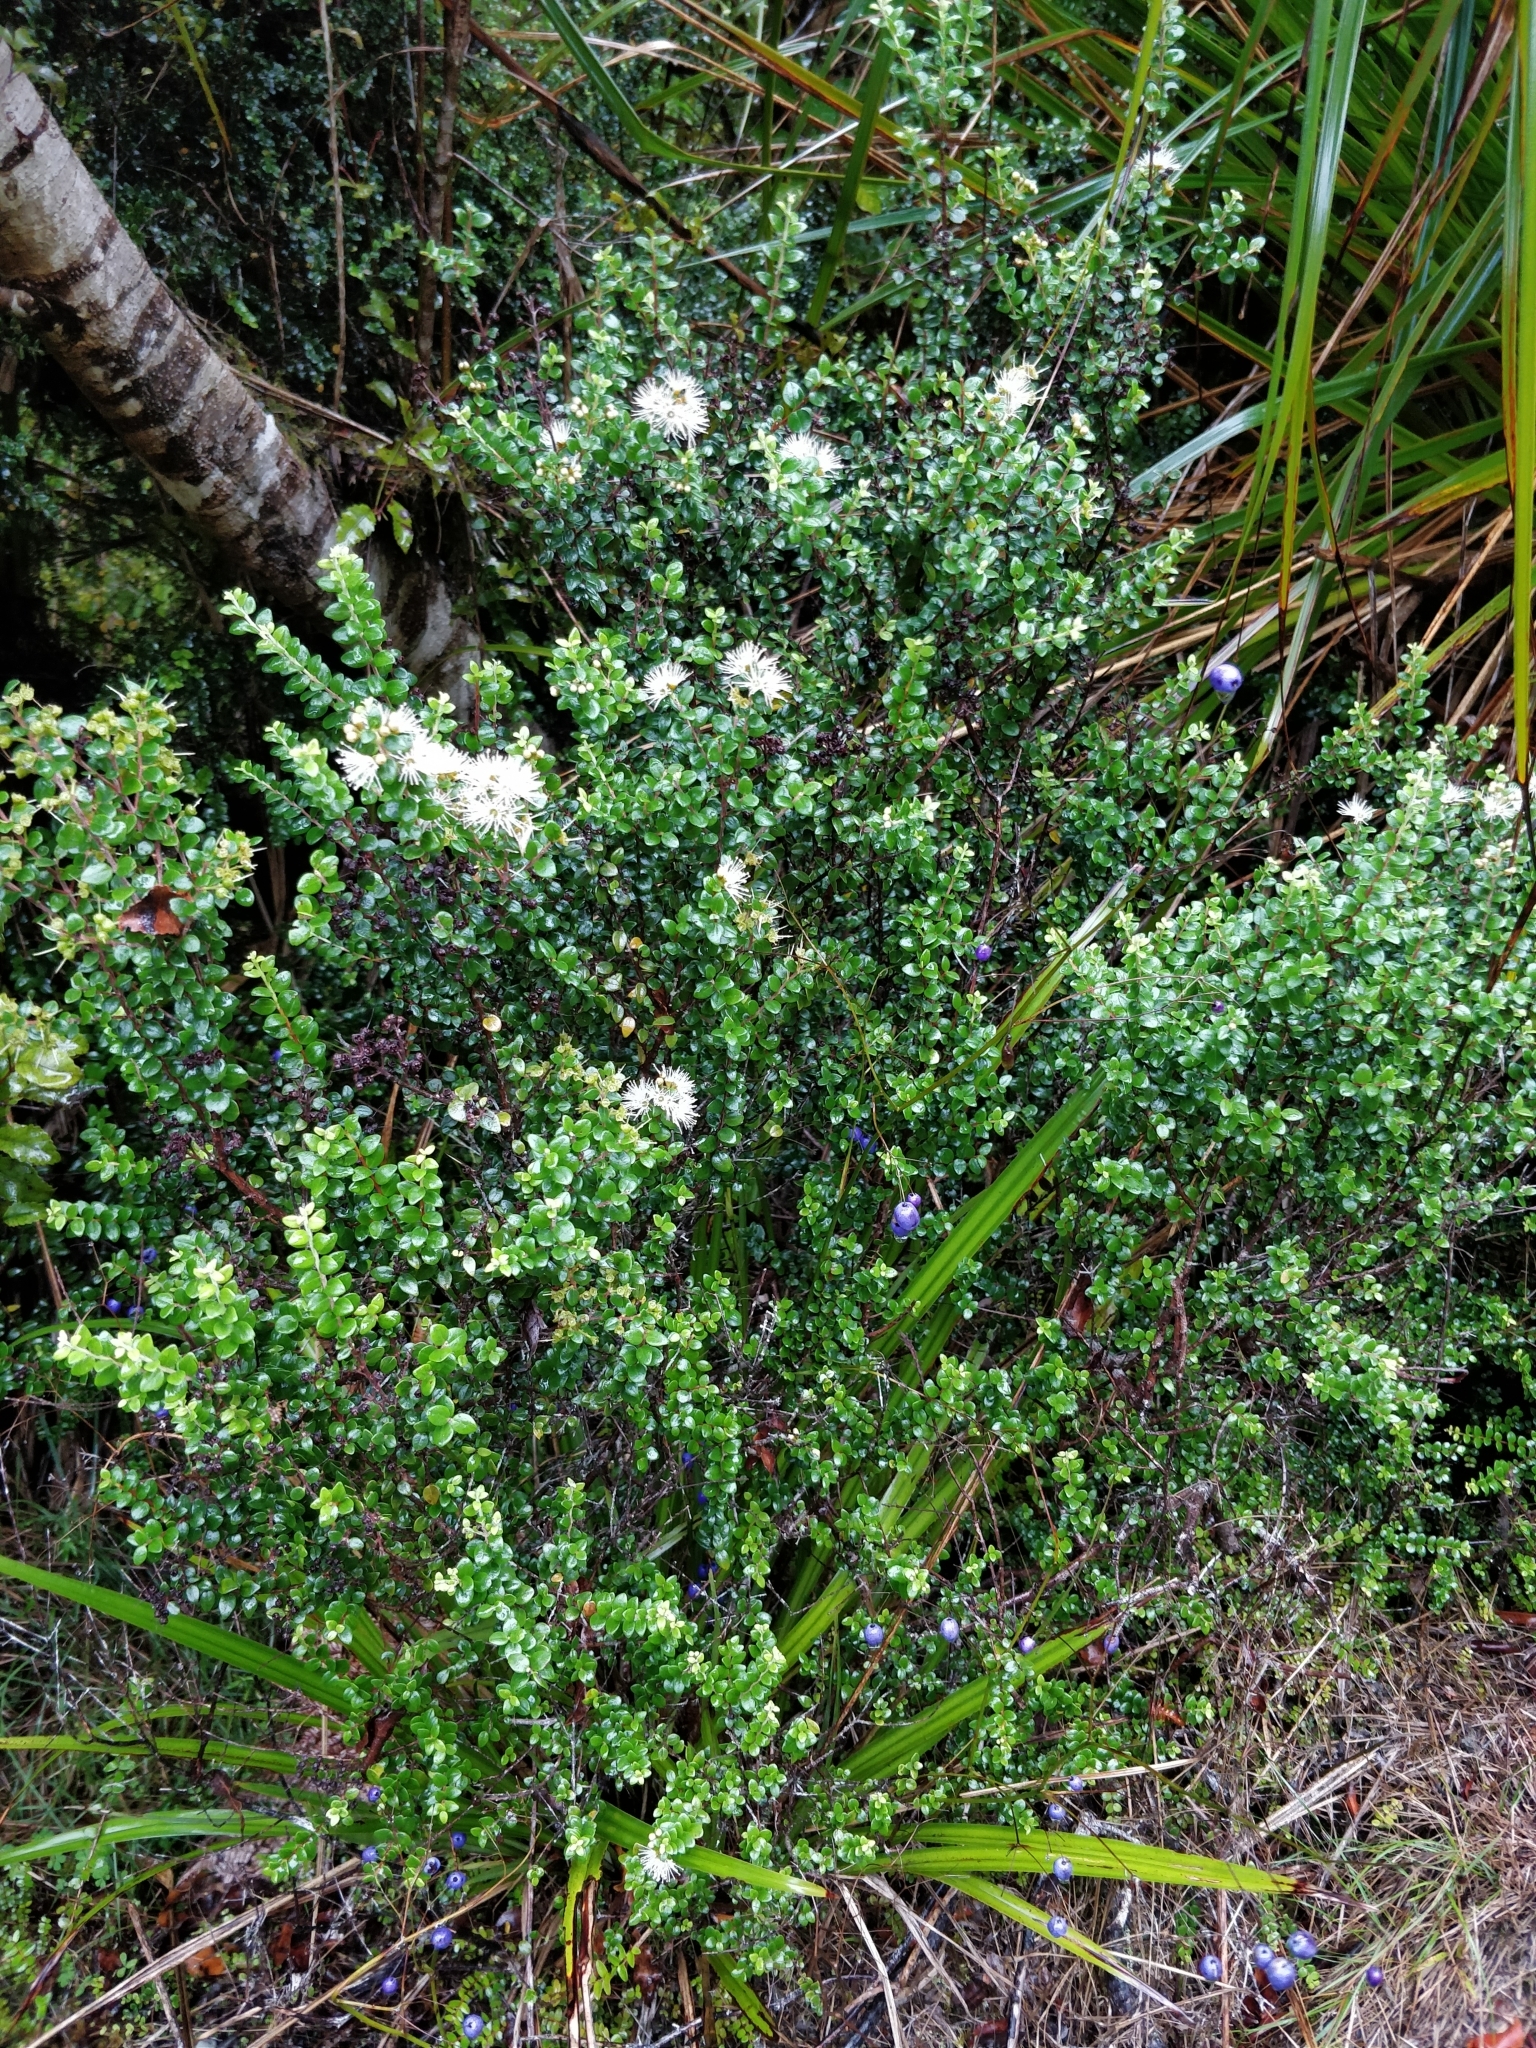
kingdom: Plantae
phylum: Tracheophyta
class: Magnoliopsida
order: Myrtales
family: Myrtaceae
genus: Metrosideros
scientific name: Metrosideros perforata
